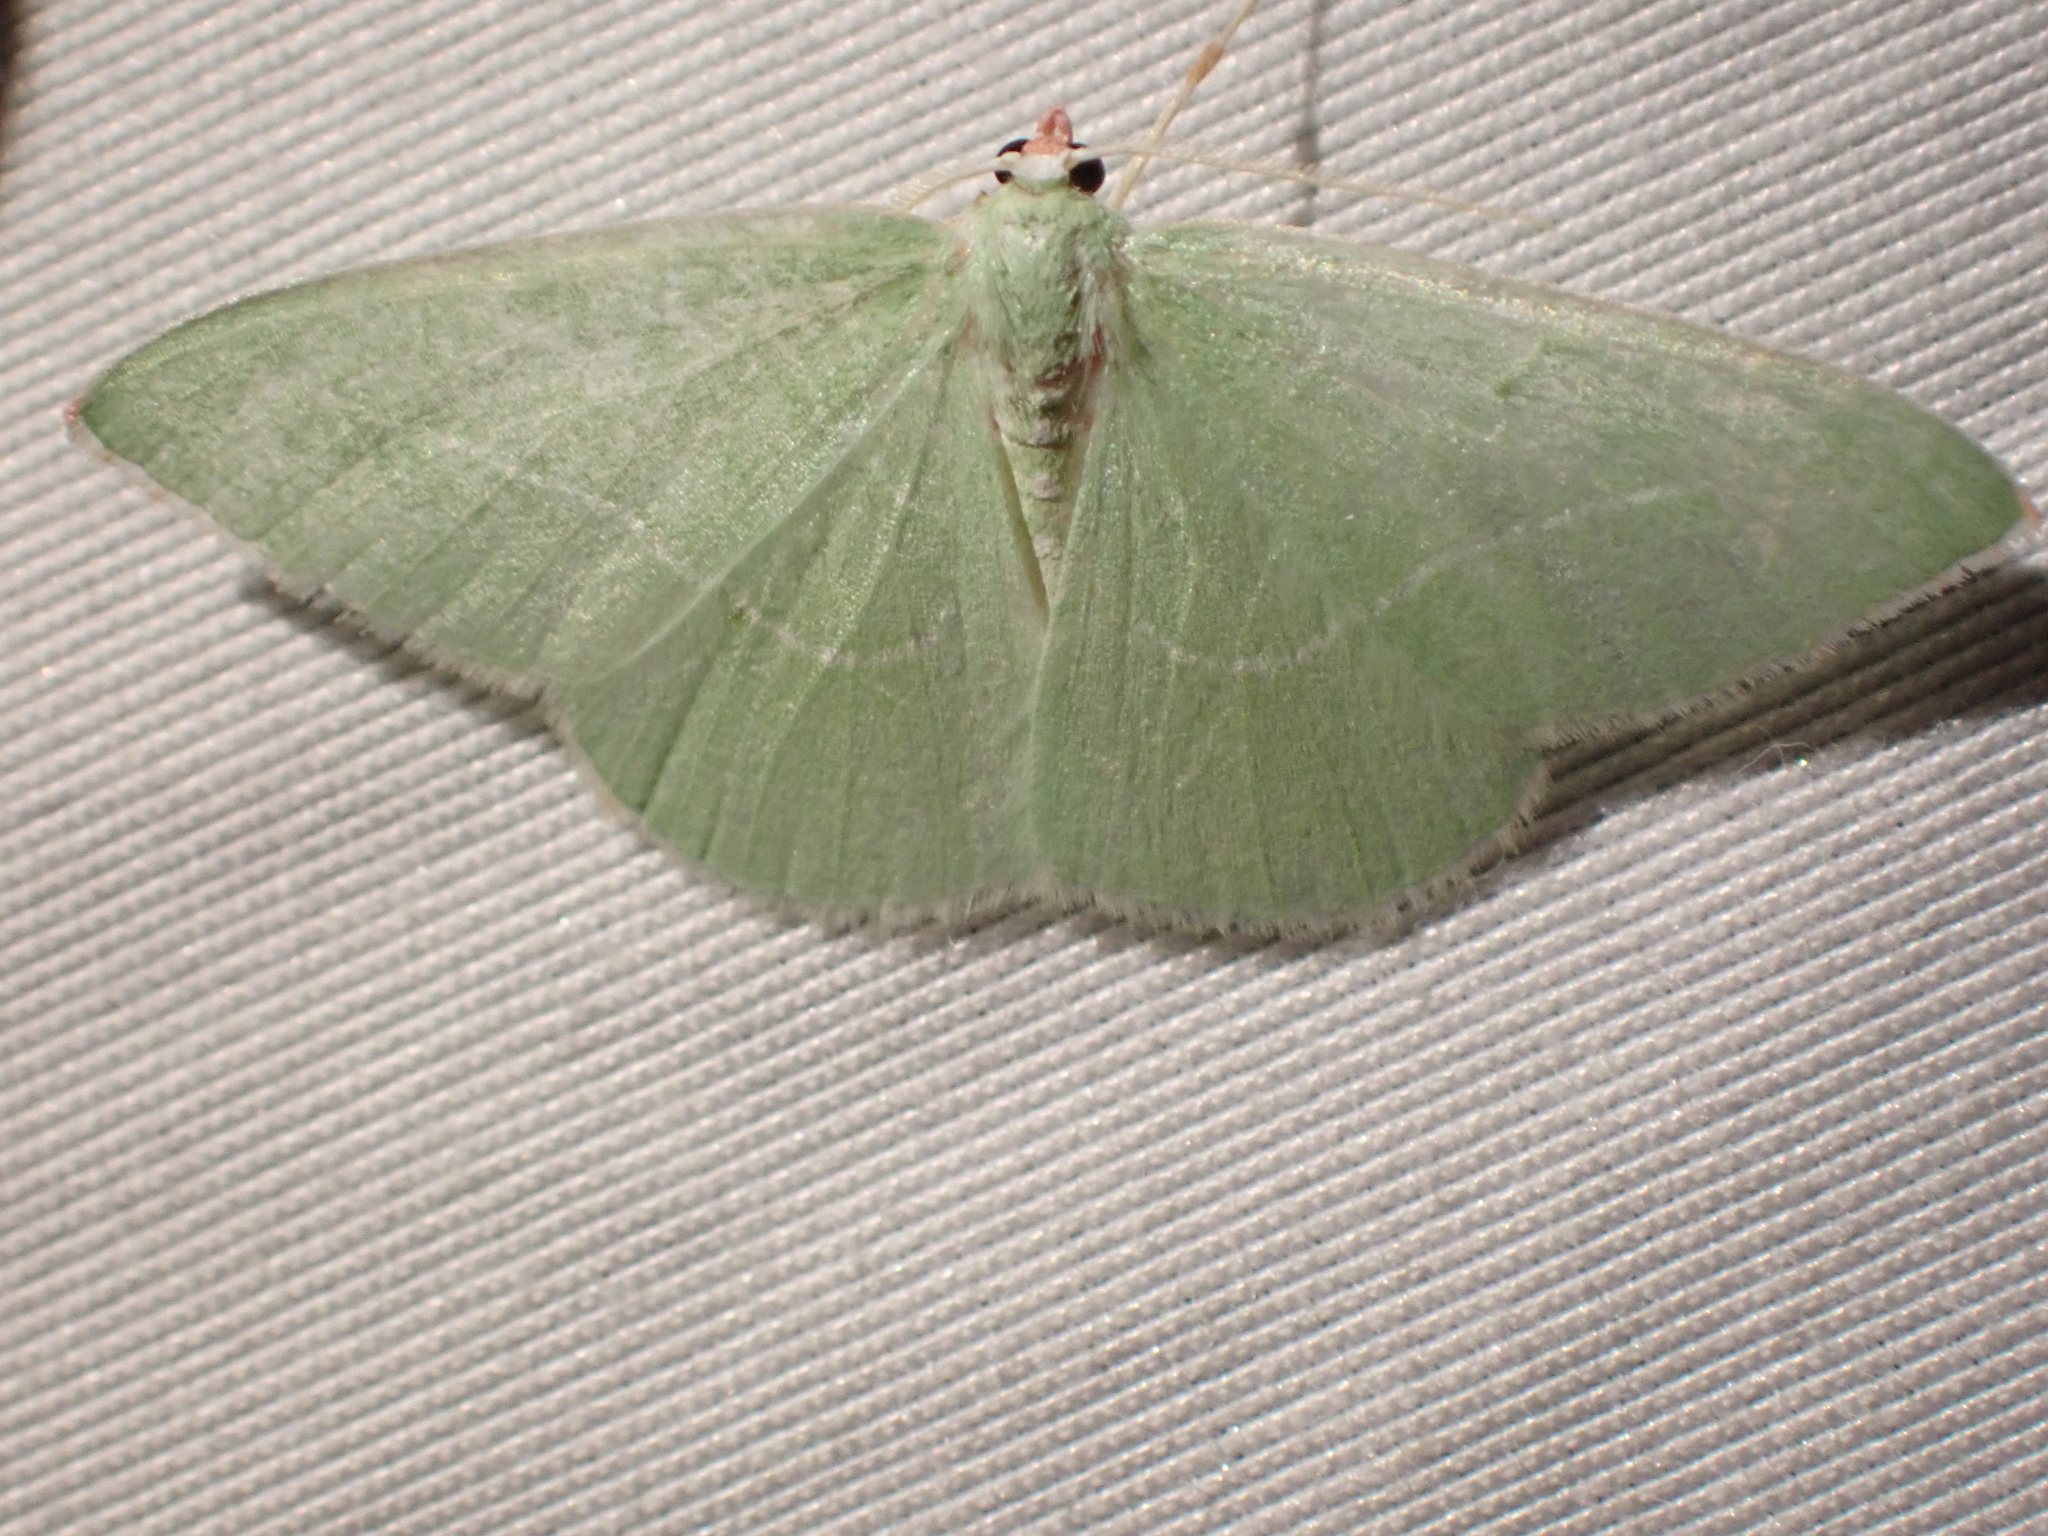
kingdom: Animalia
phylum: Arthropoda
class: Insecta
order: Lepidoptera
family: Geometridae
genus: Nemoria
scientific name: Nemoria unitaria
